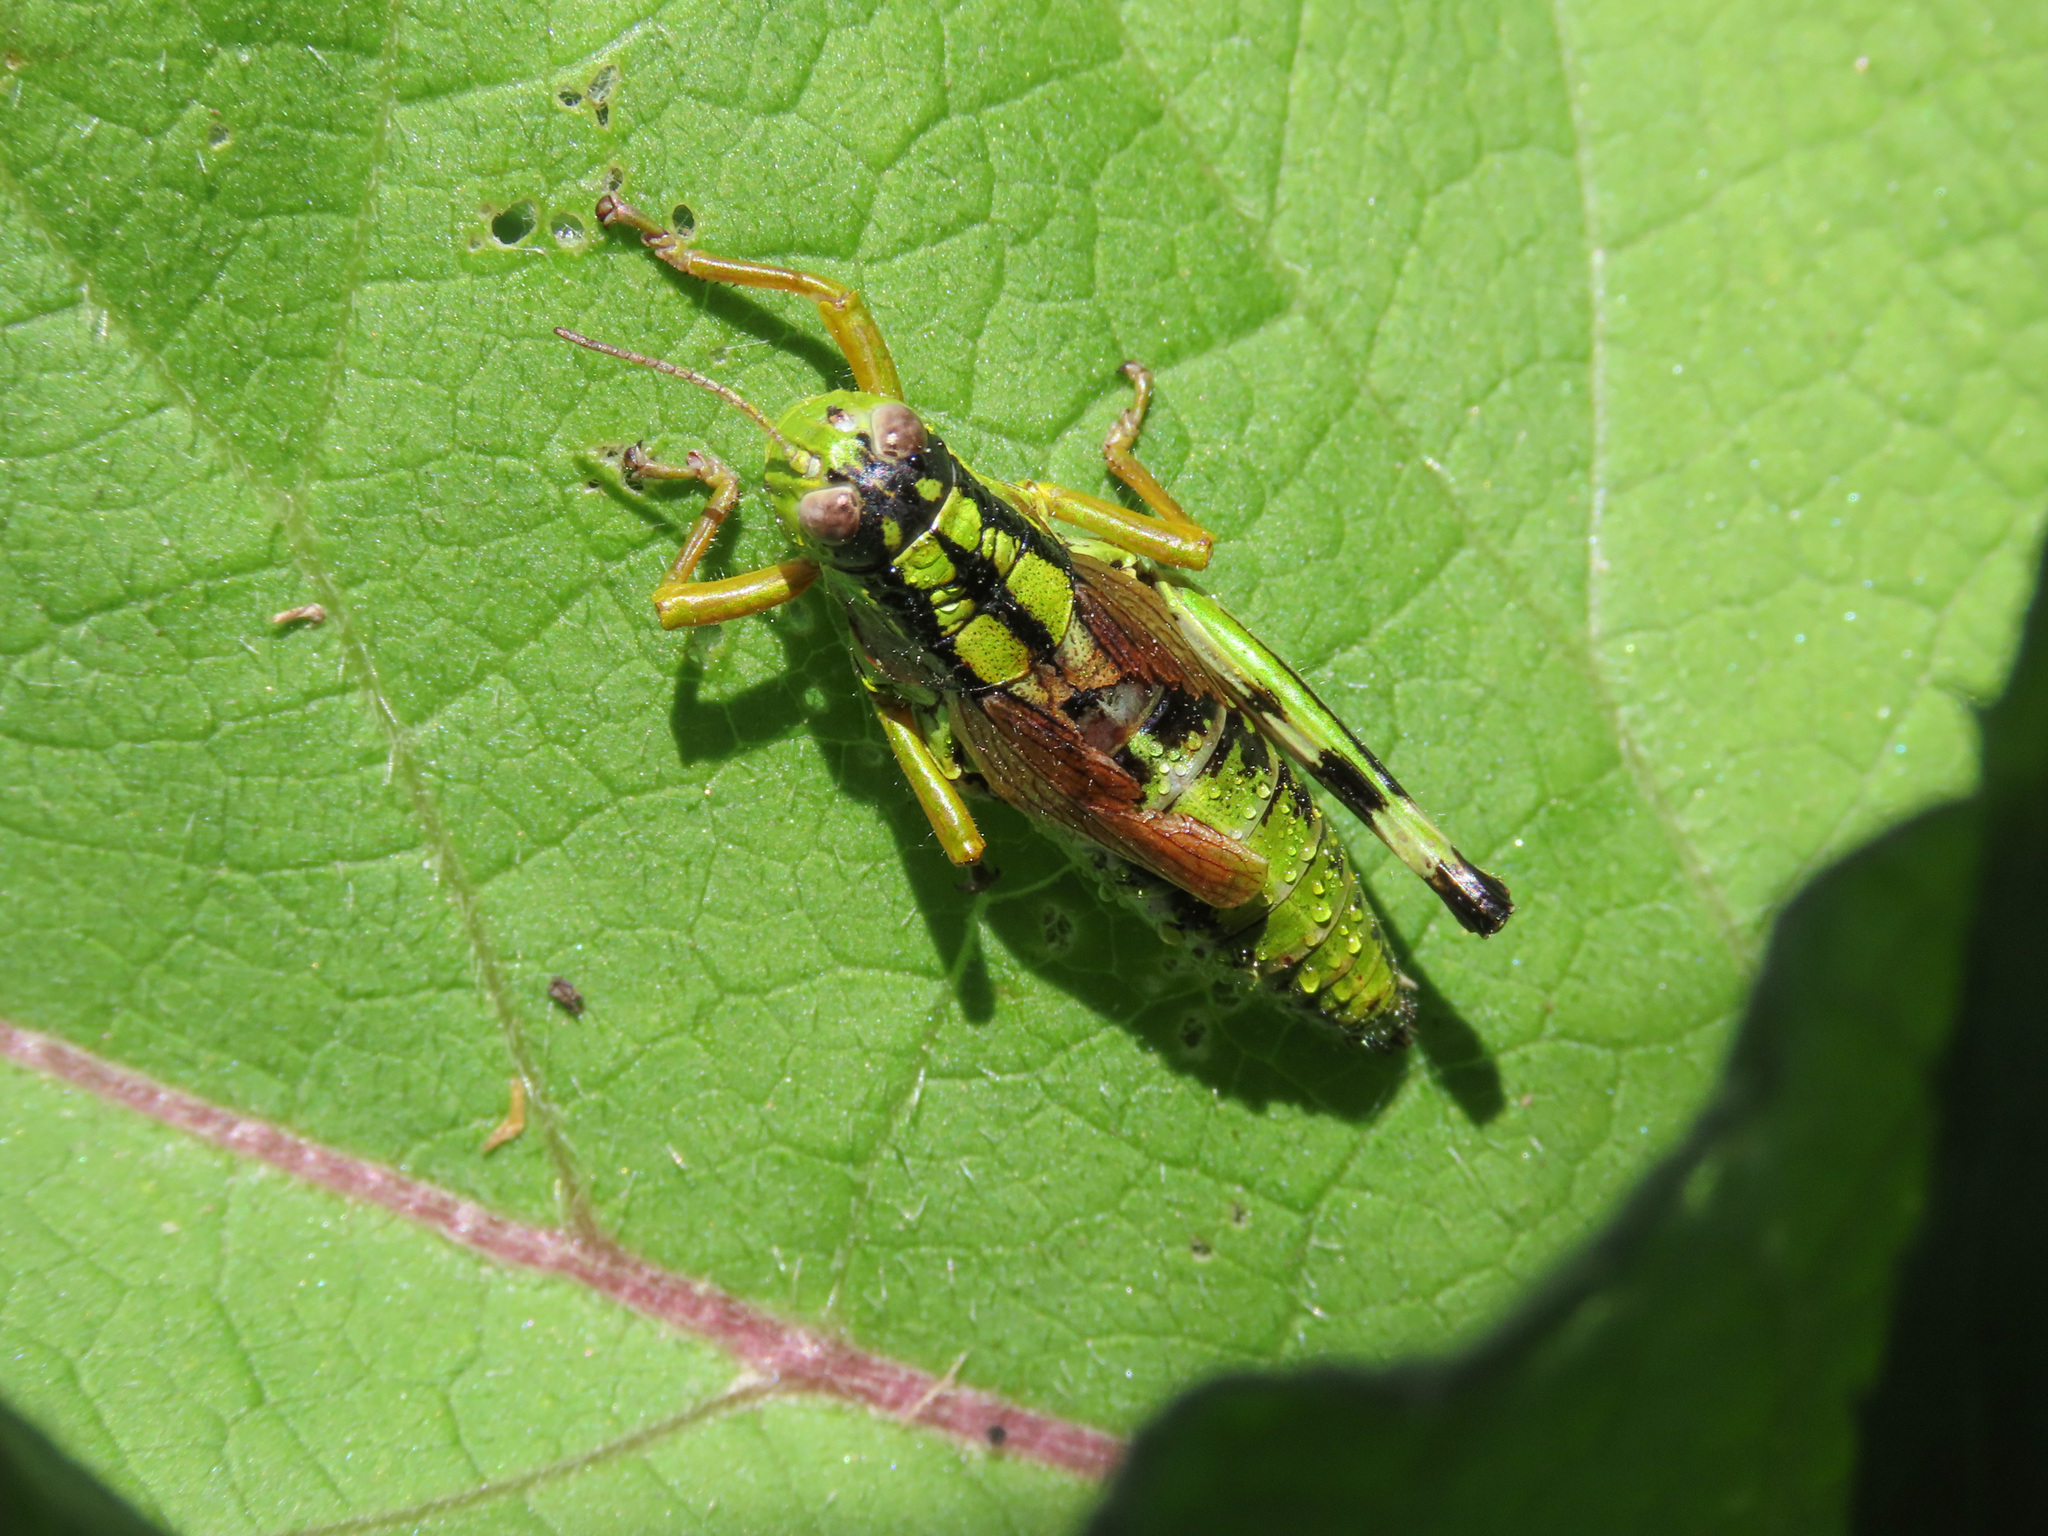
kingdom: Animalia
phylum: Arthropoda
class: Insecta
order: Orthoptera
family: Acrididae
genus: Miramella
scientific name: Miramella irena
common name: Long-winged mountain grasshopper
